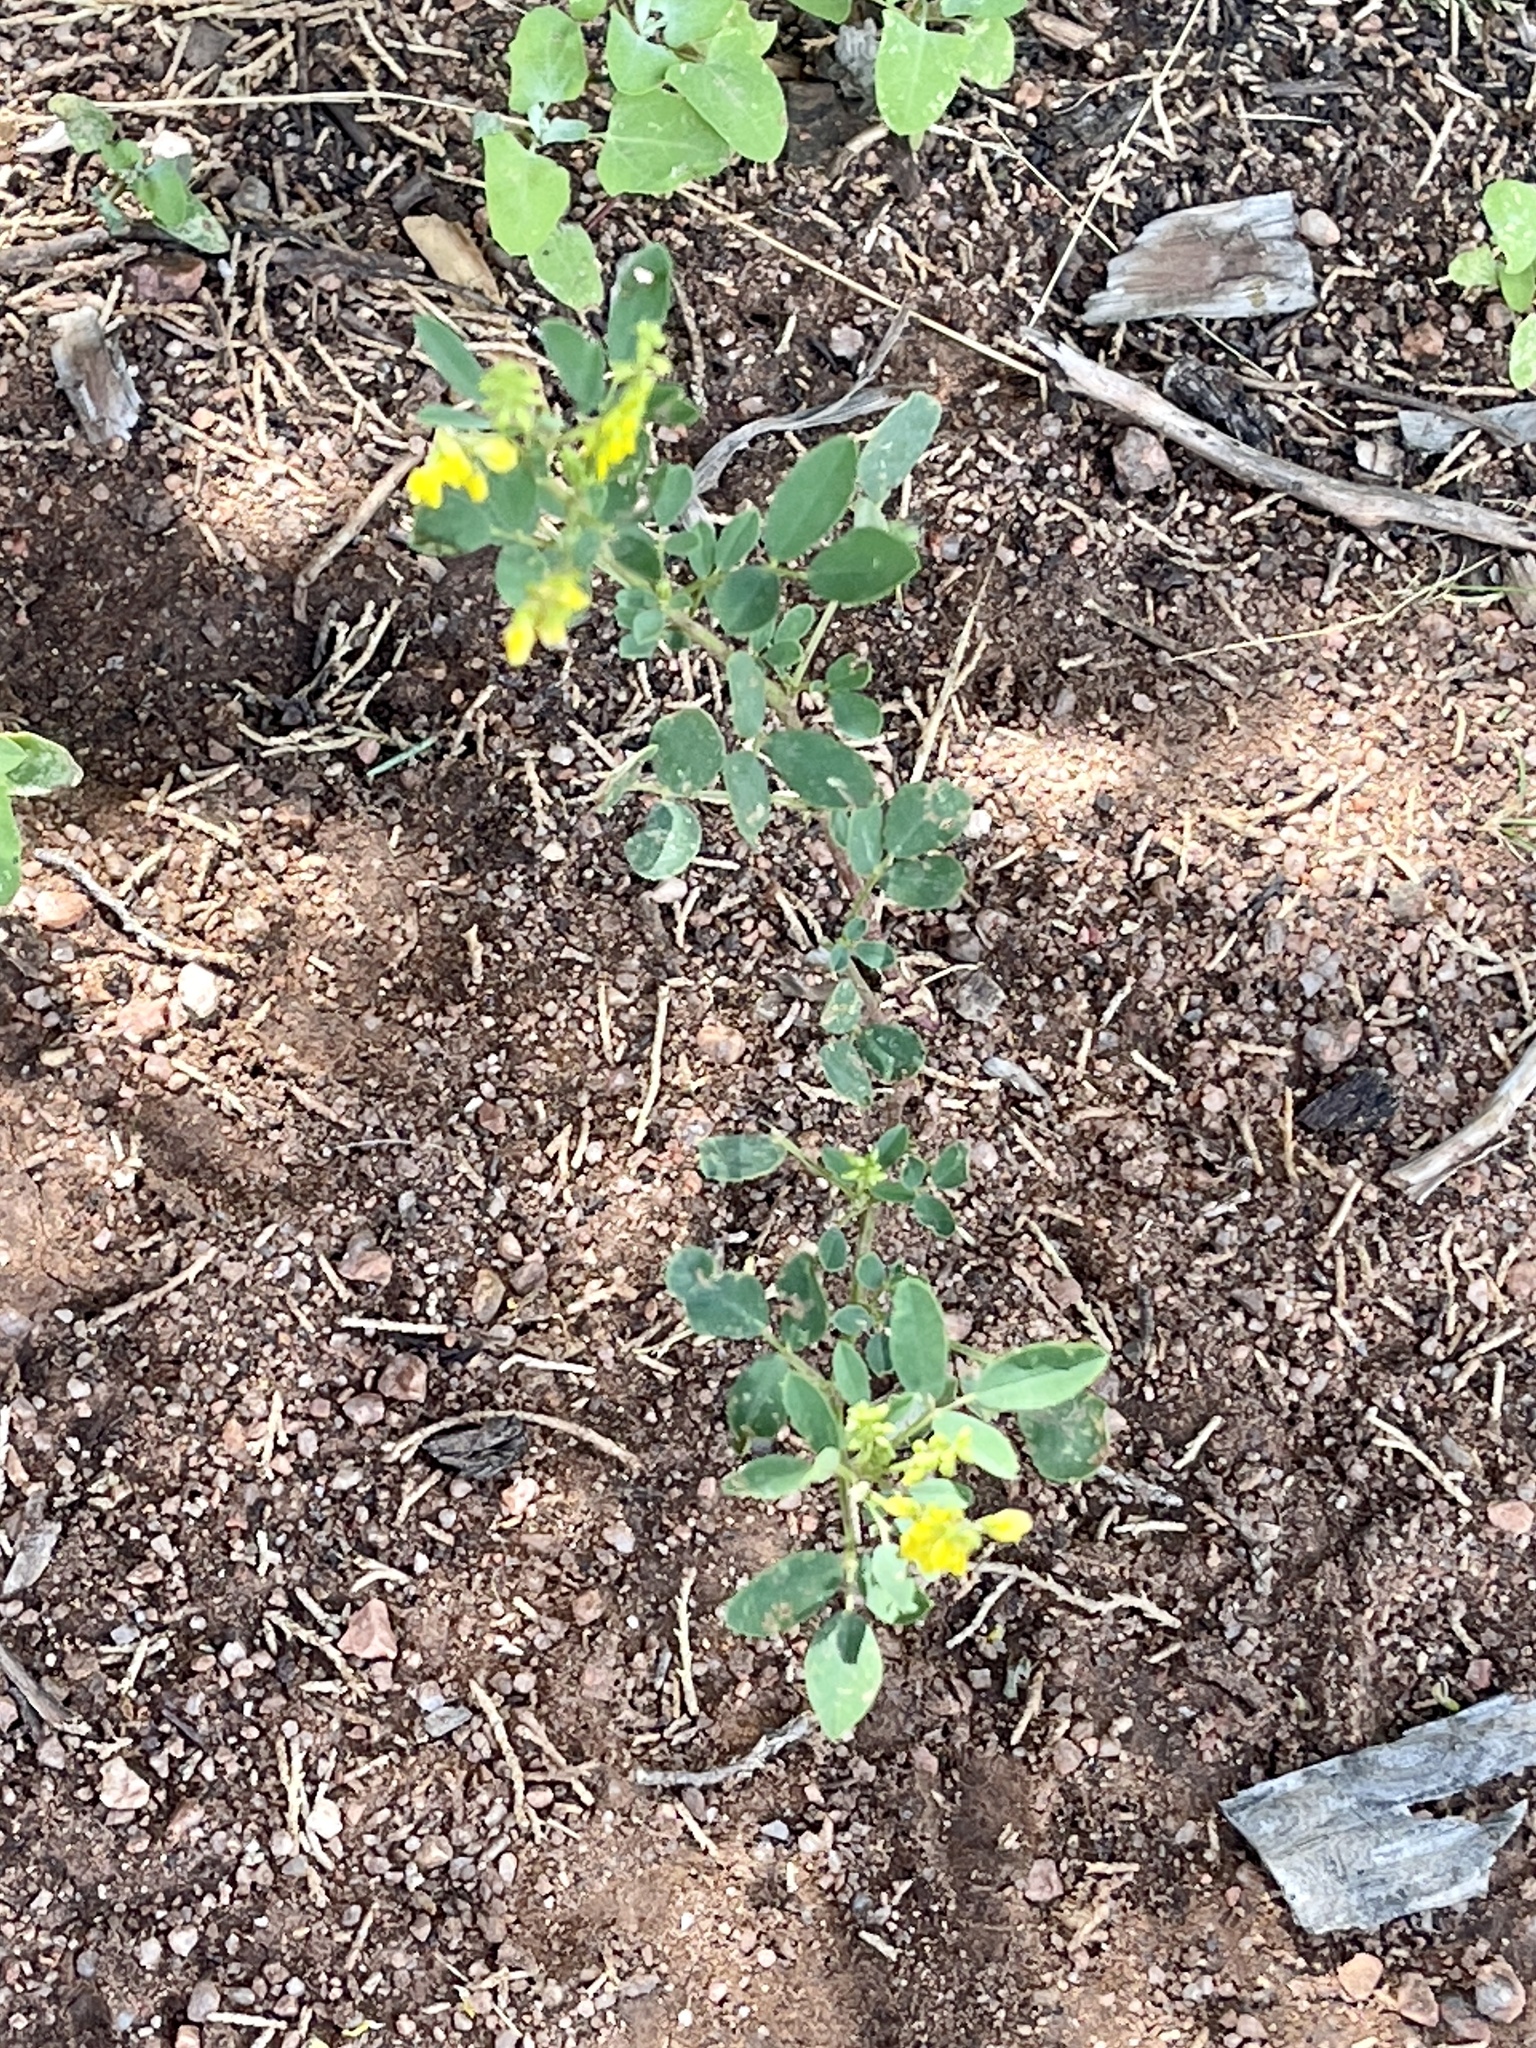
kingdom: Plantae
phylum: Tracheophyta
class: Magnoliopsida
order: Fabales
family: Fabaceae
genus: Melilotus
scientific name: Melilotus officinalis
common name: Sweetclover
